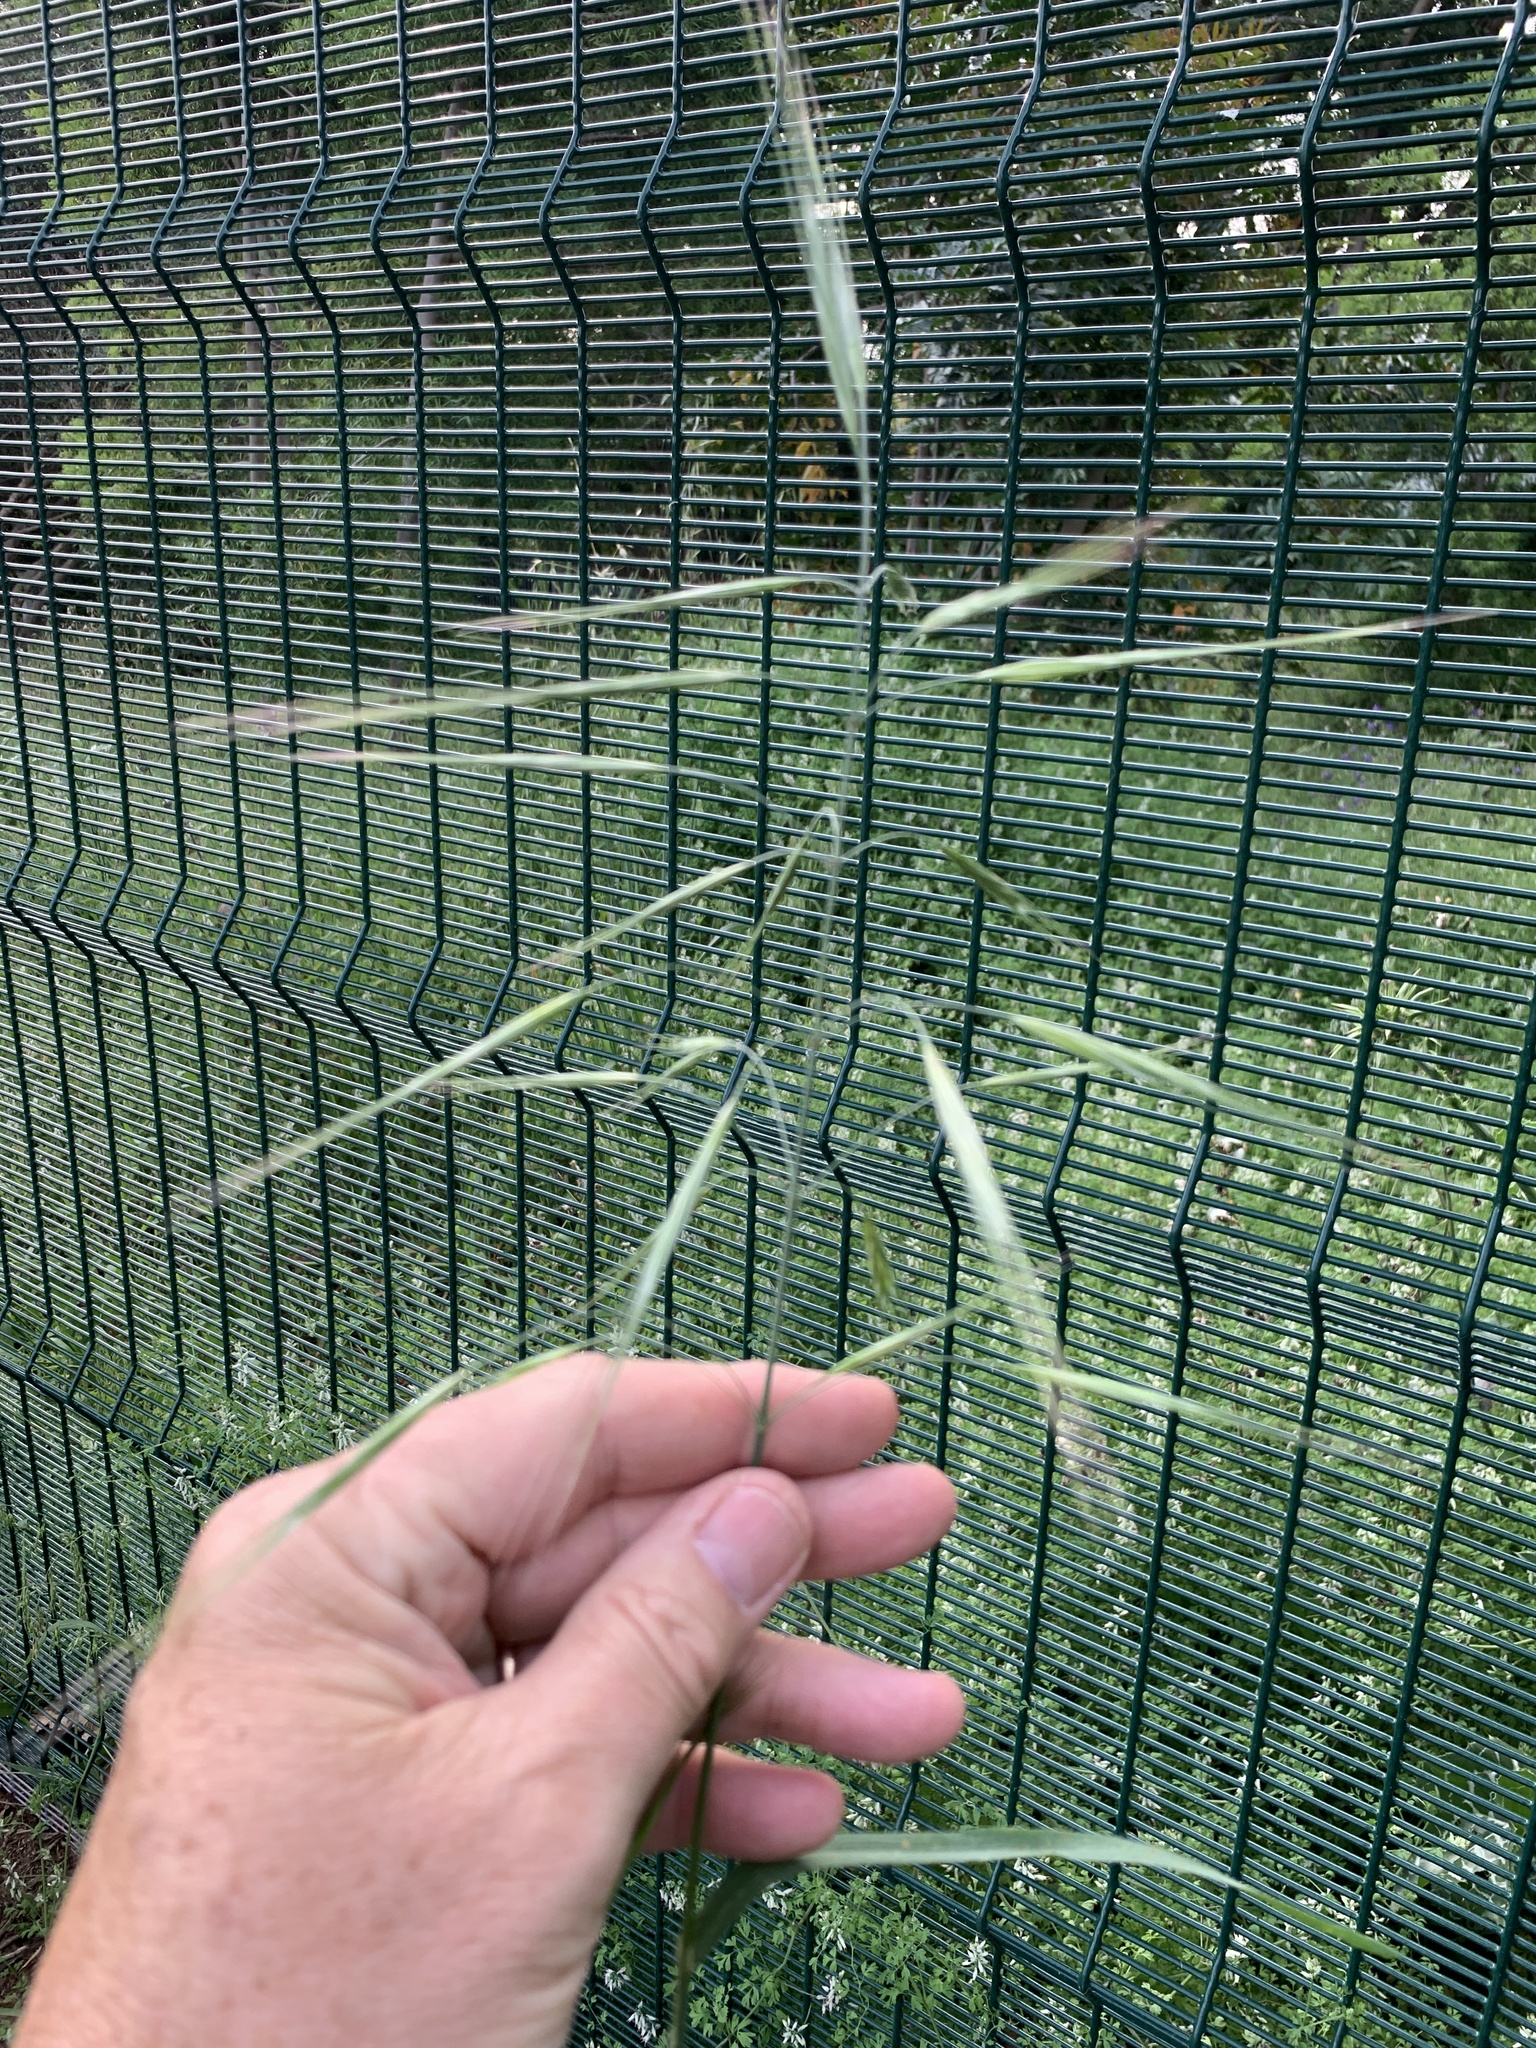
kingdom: Plantae
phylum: Tracheophyta
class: Liliopsida
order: Poales
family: Poaceae
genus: Bromus
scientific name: Bromus diandrus
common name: Ripgut brome
